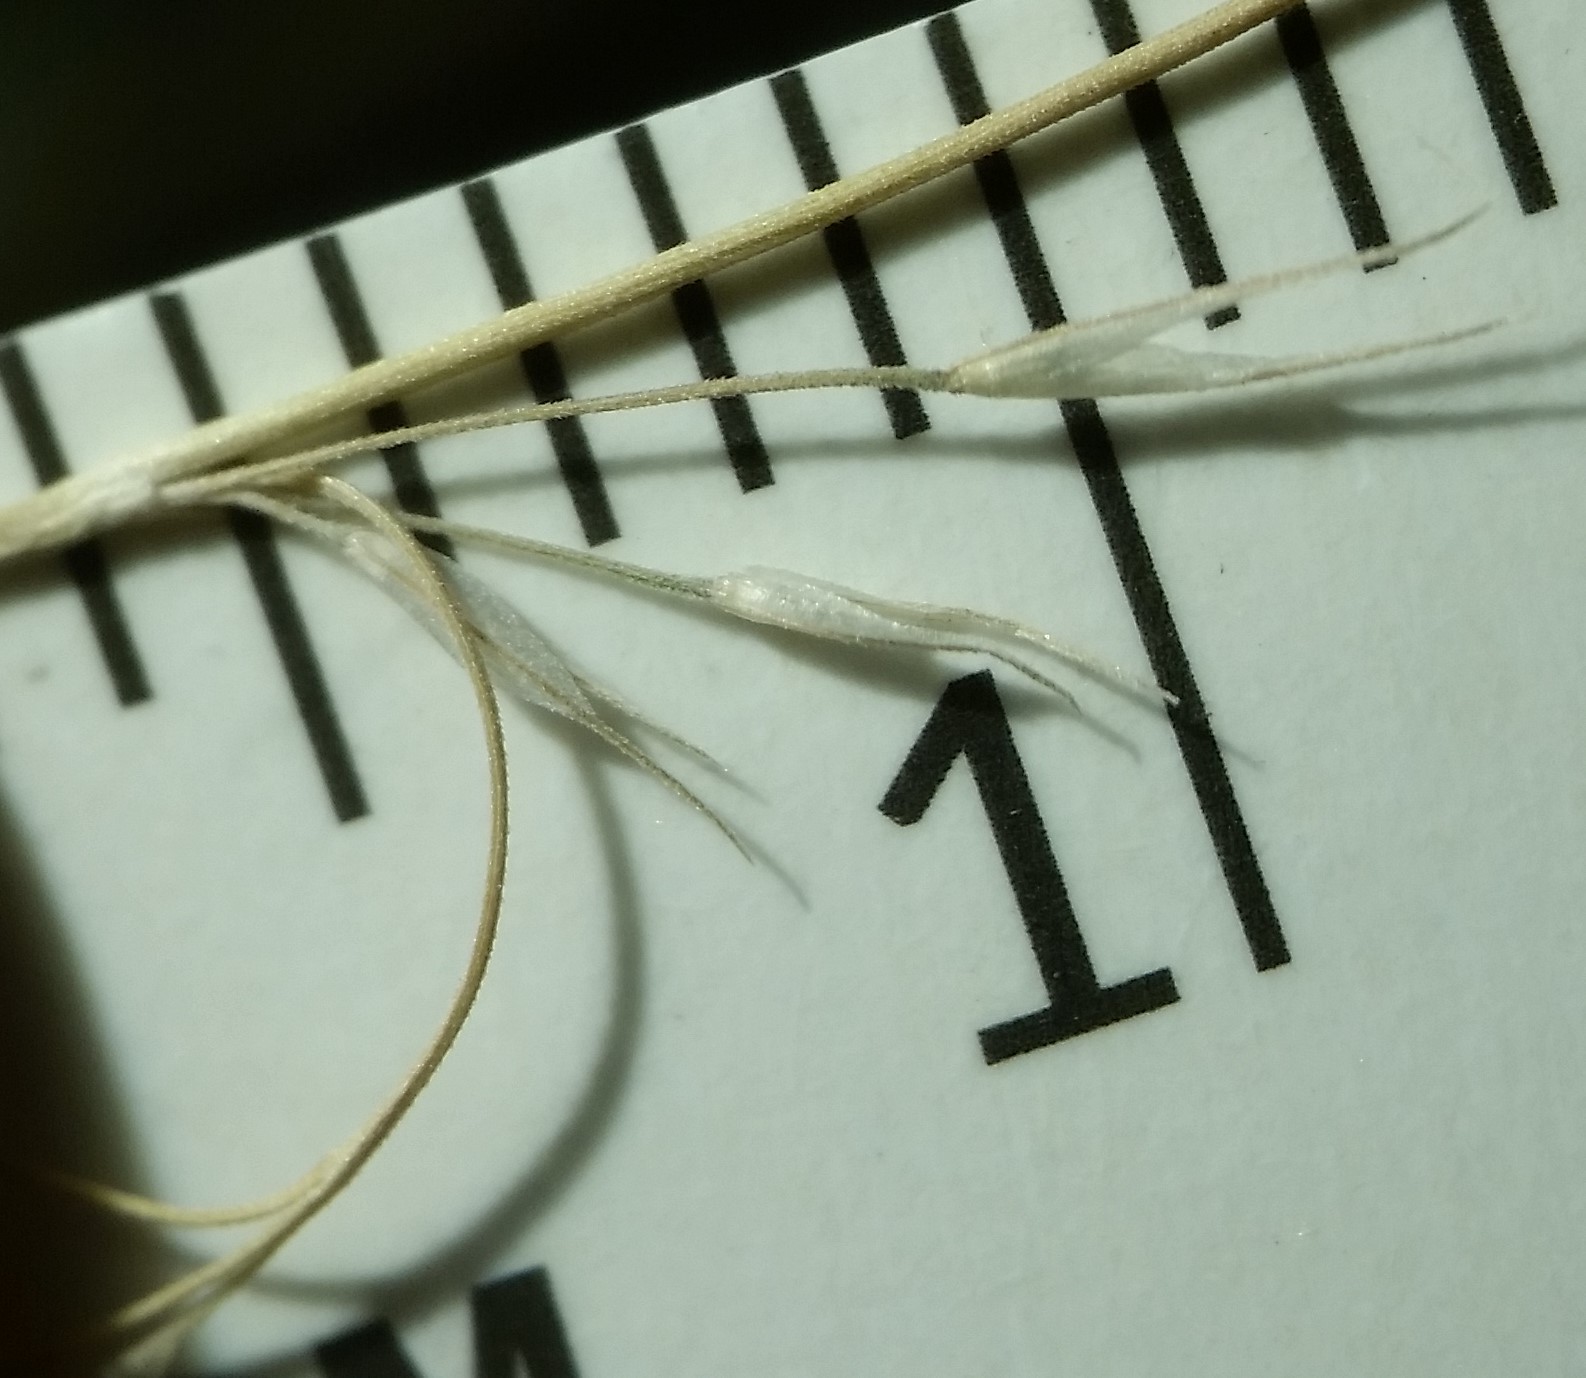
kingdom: Plantae
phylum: Tracheophyta
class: Liliopsida
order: Poales
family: Poaceae
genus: Muhlenbergia
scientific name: Muhlenbergia sylvatica
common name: Woodland muhly
